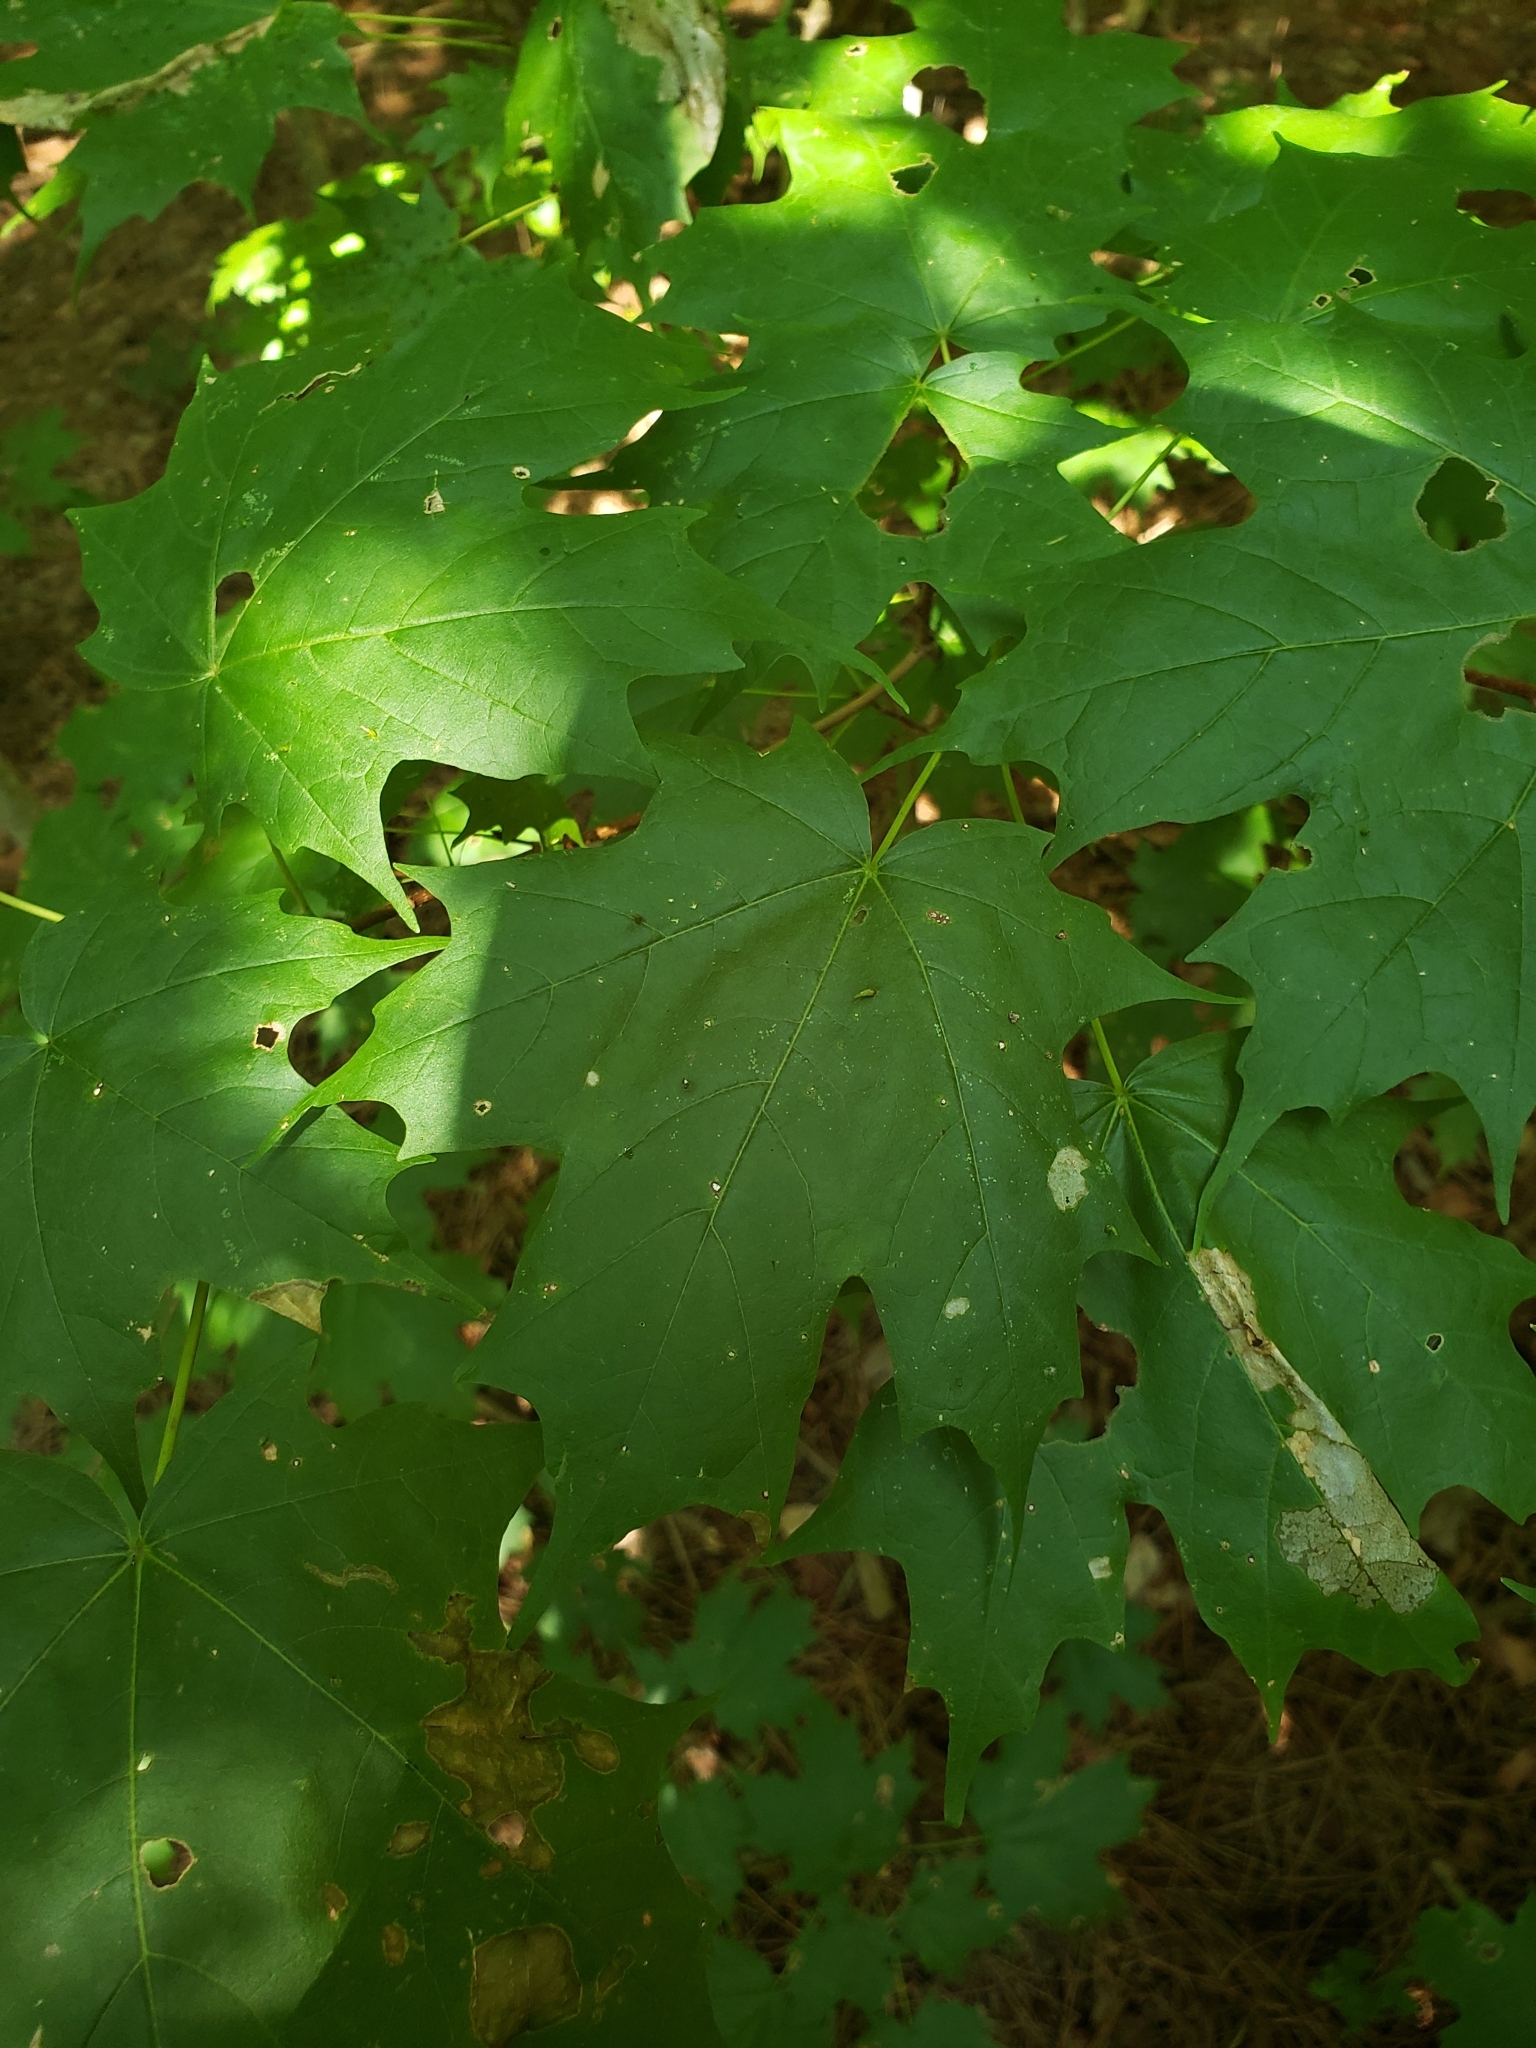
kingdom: Plantae
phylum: Tracheophyta
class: Magnoliopsida
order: Sapindales
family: Sapindaceae
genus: Acer
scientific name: Acer saccharum
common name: Sugar maple
